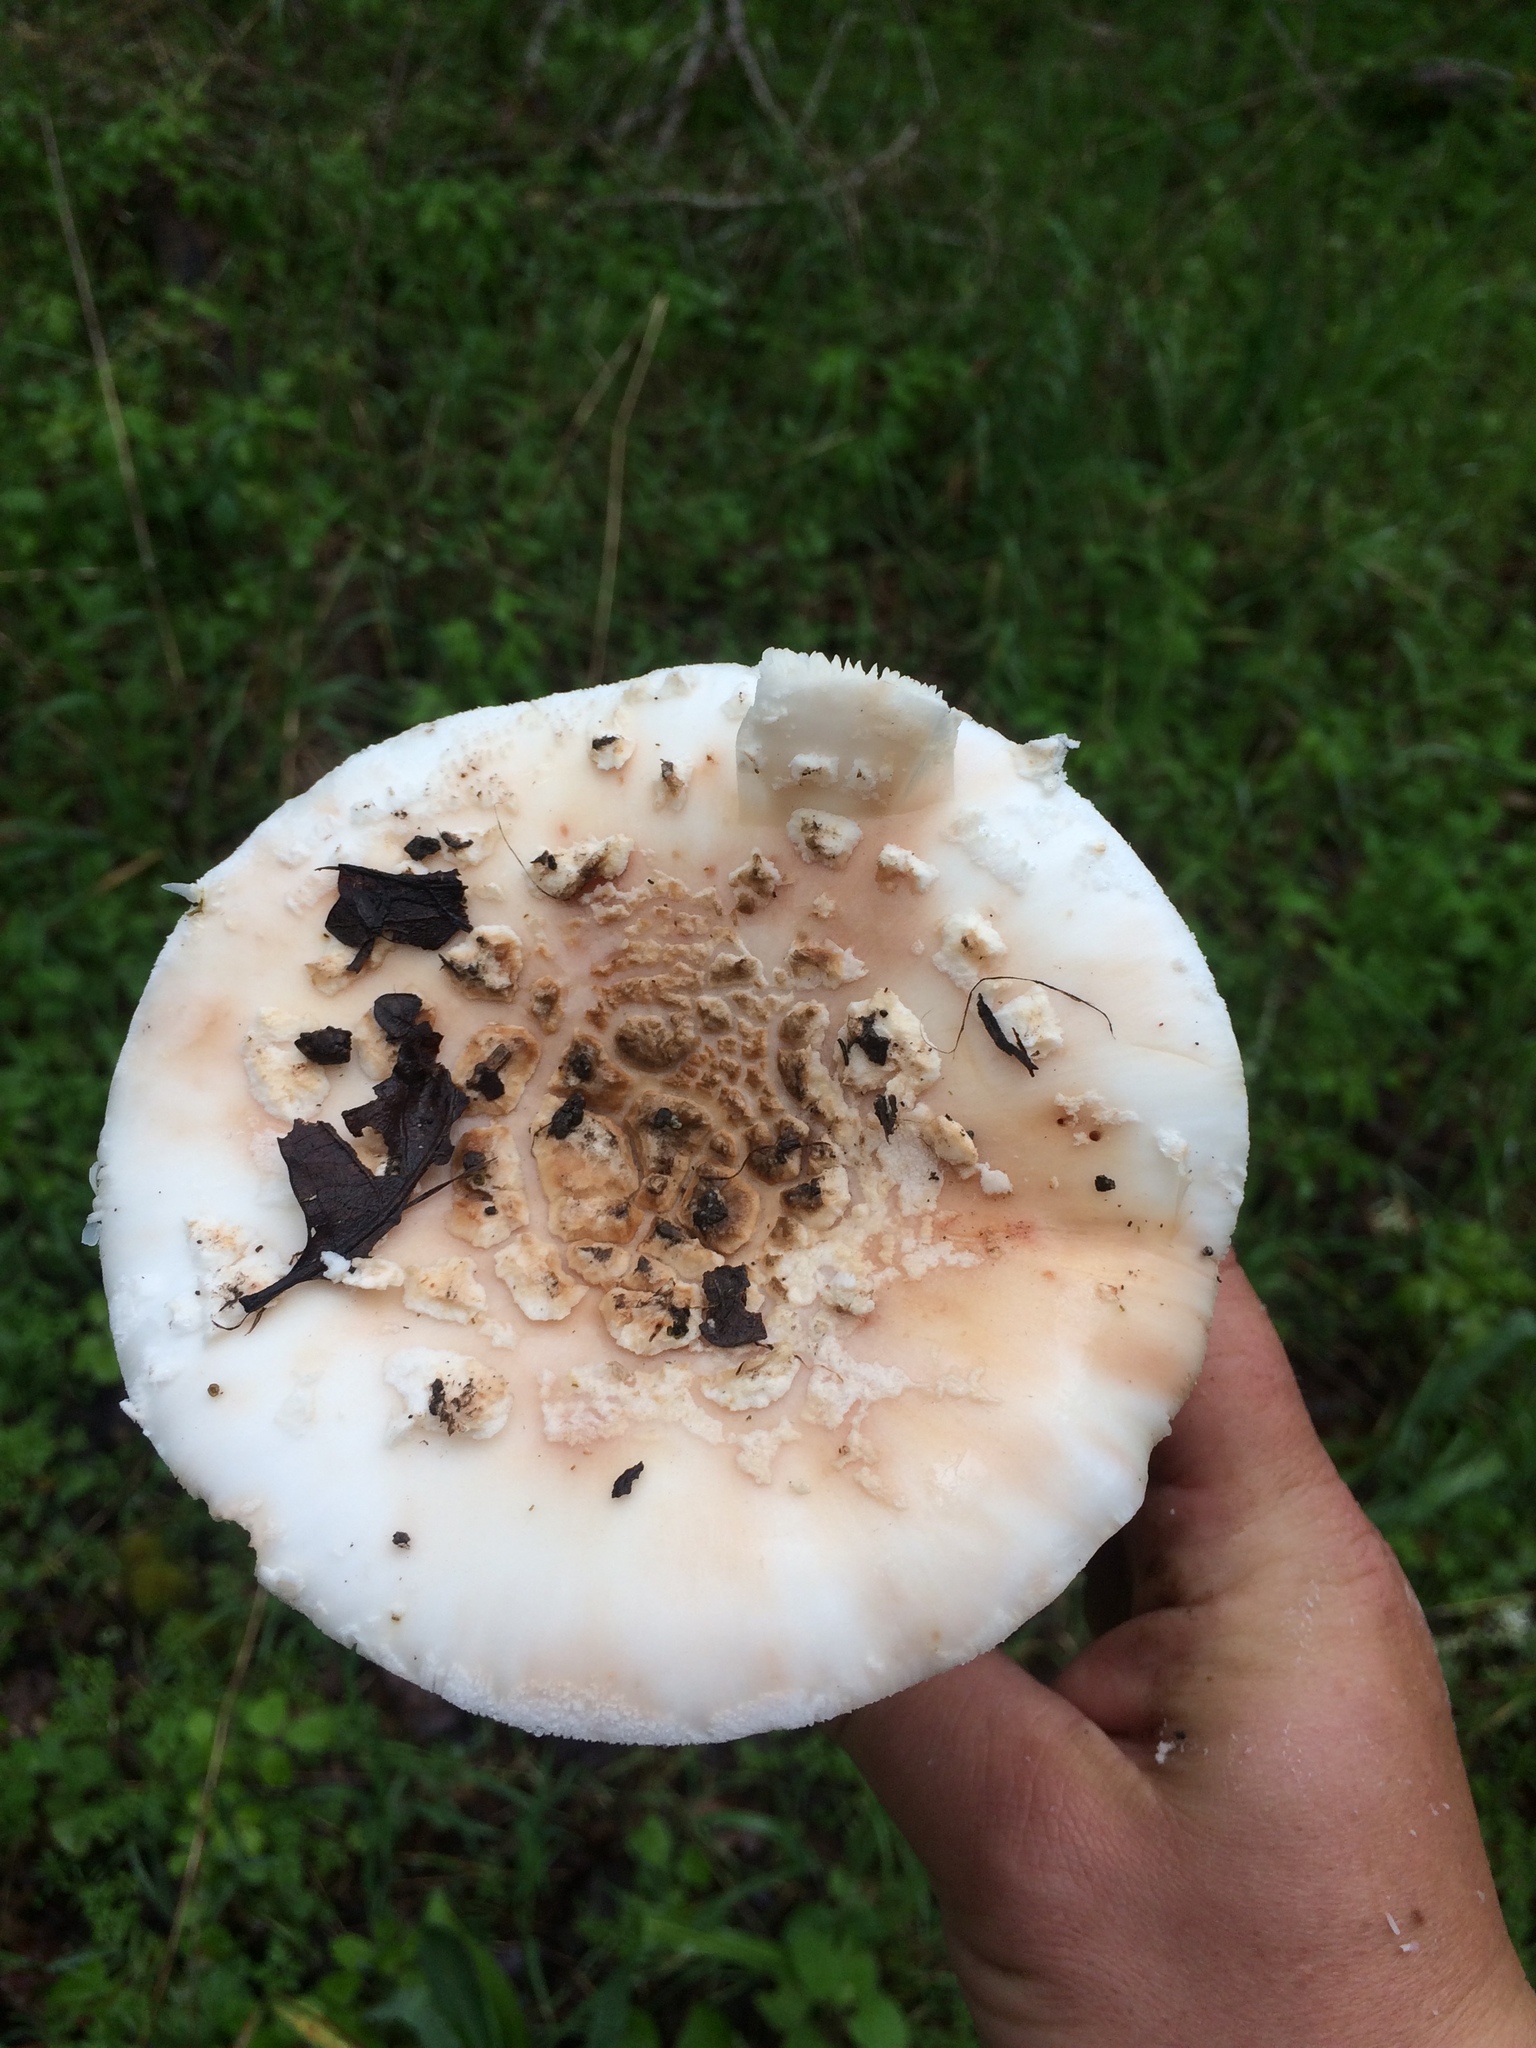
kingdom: Fungi
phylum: Basidiomycota
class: Agaricomycetes
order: Agaricales
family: Amanitaceae
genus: Amanita
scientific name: Amanita novinupta
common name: Blushing bride
